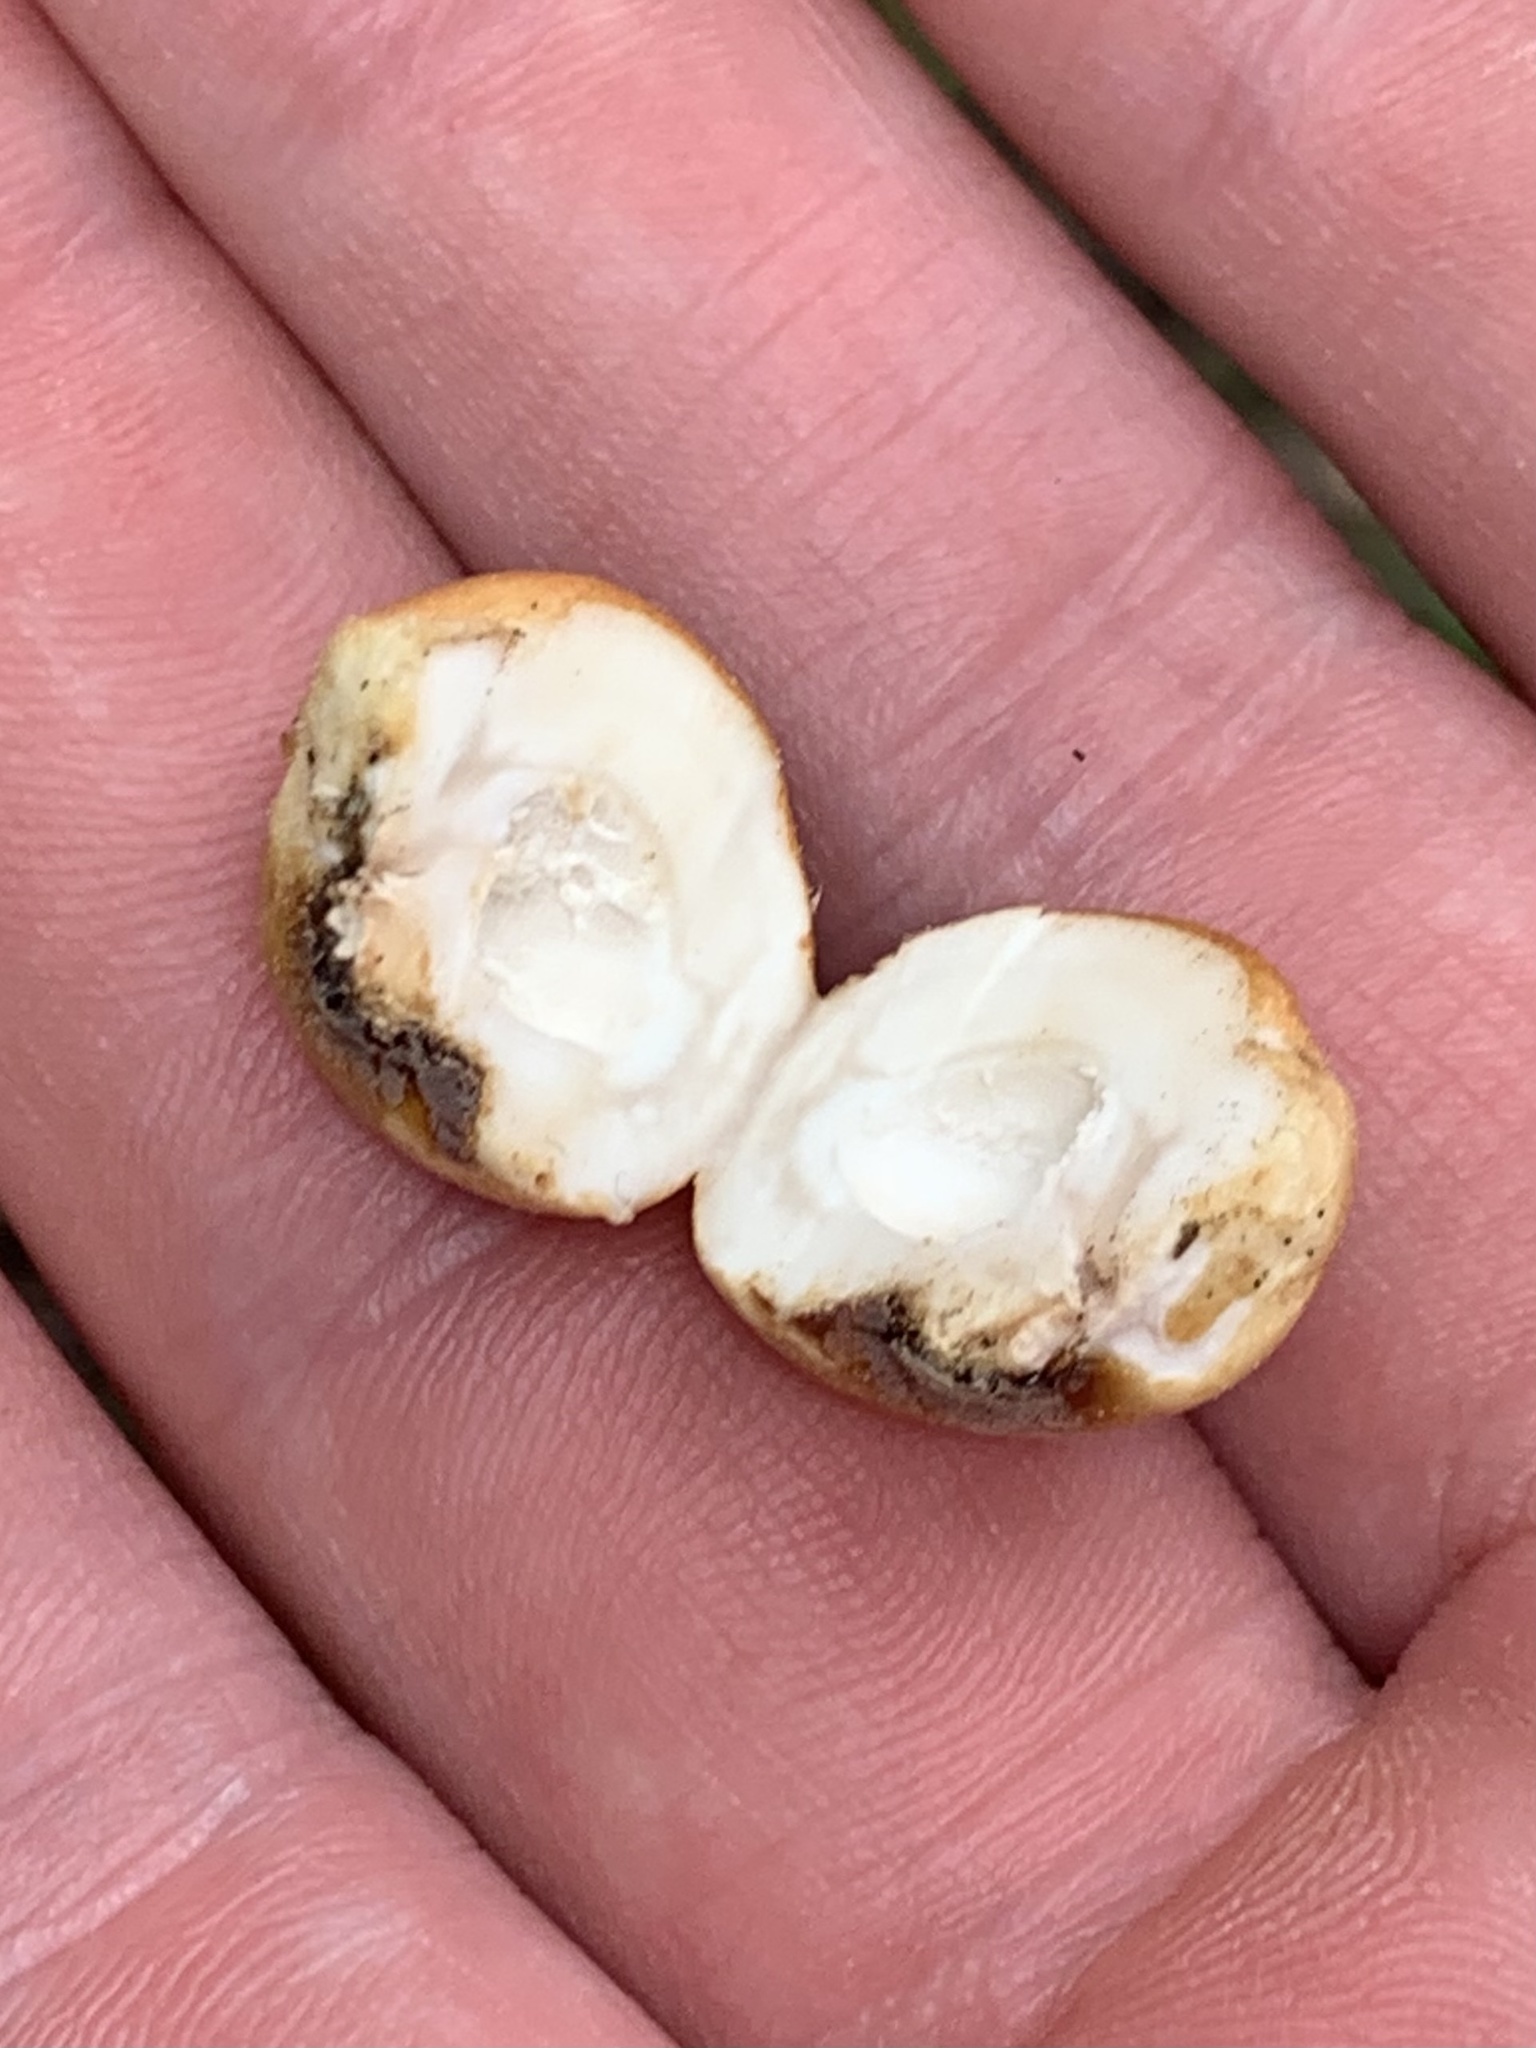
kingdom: Fungi
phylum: Basidiomycota
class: Agaricomycetes
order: Polyporales
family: Polyporaceae
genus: Cryptoporus
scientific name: Cryptoporus volvatus
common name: Veiled polypore
